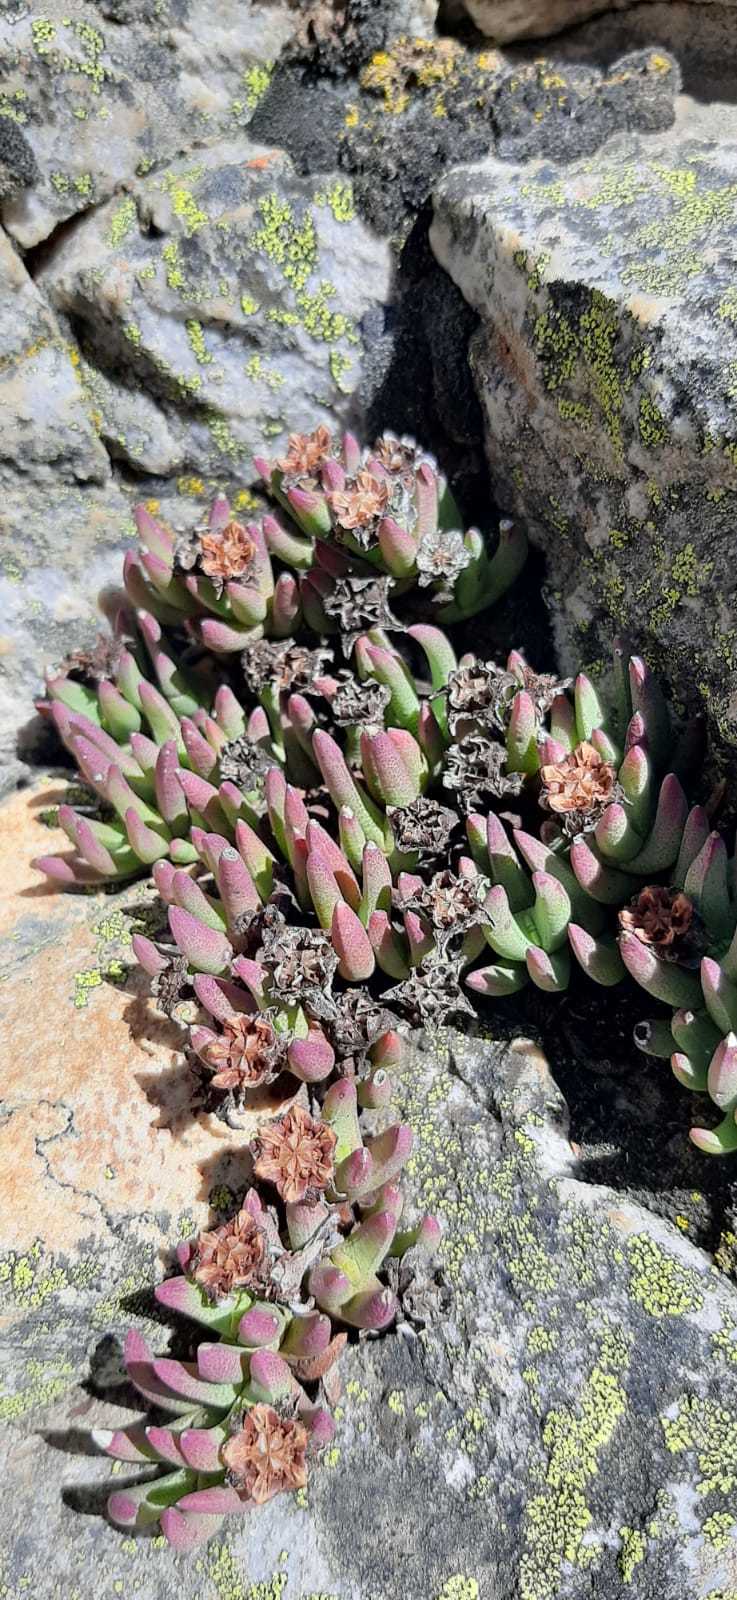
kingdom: Plantae
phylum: Tracheophyta
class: Magnoliopsida
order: Caryophyllales
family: Aizoaceae
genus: Ruschia
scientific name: Ruschia altigena
